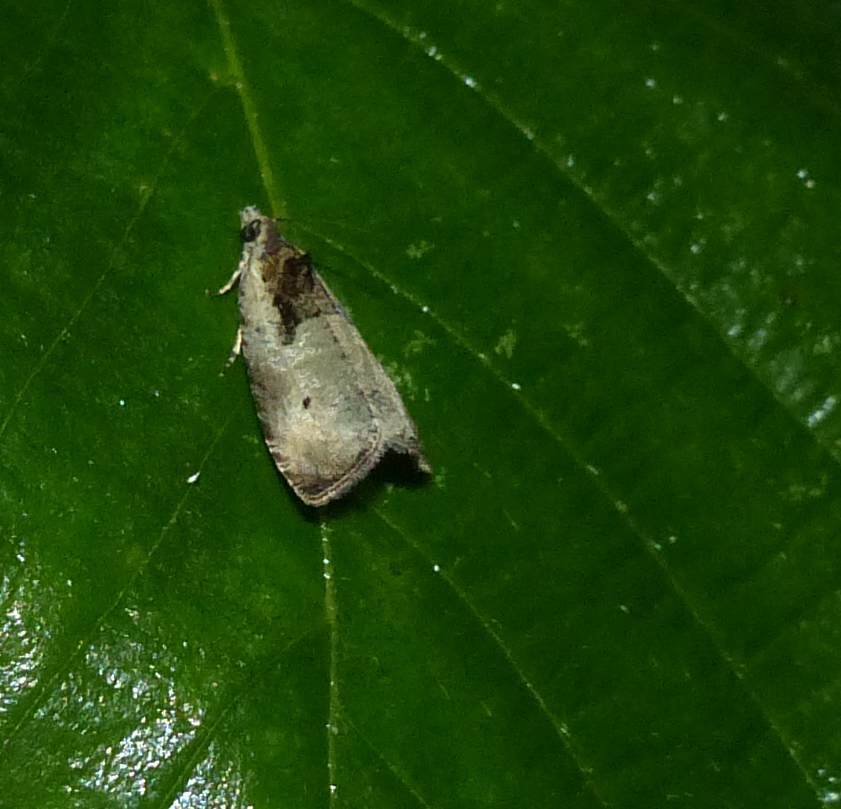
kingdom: Animalia
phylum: Arthropoda
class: Insecta
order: Lepidoptera
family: Tortricidae
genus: Olethreutes
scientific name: Olethreutes punctanum
